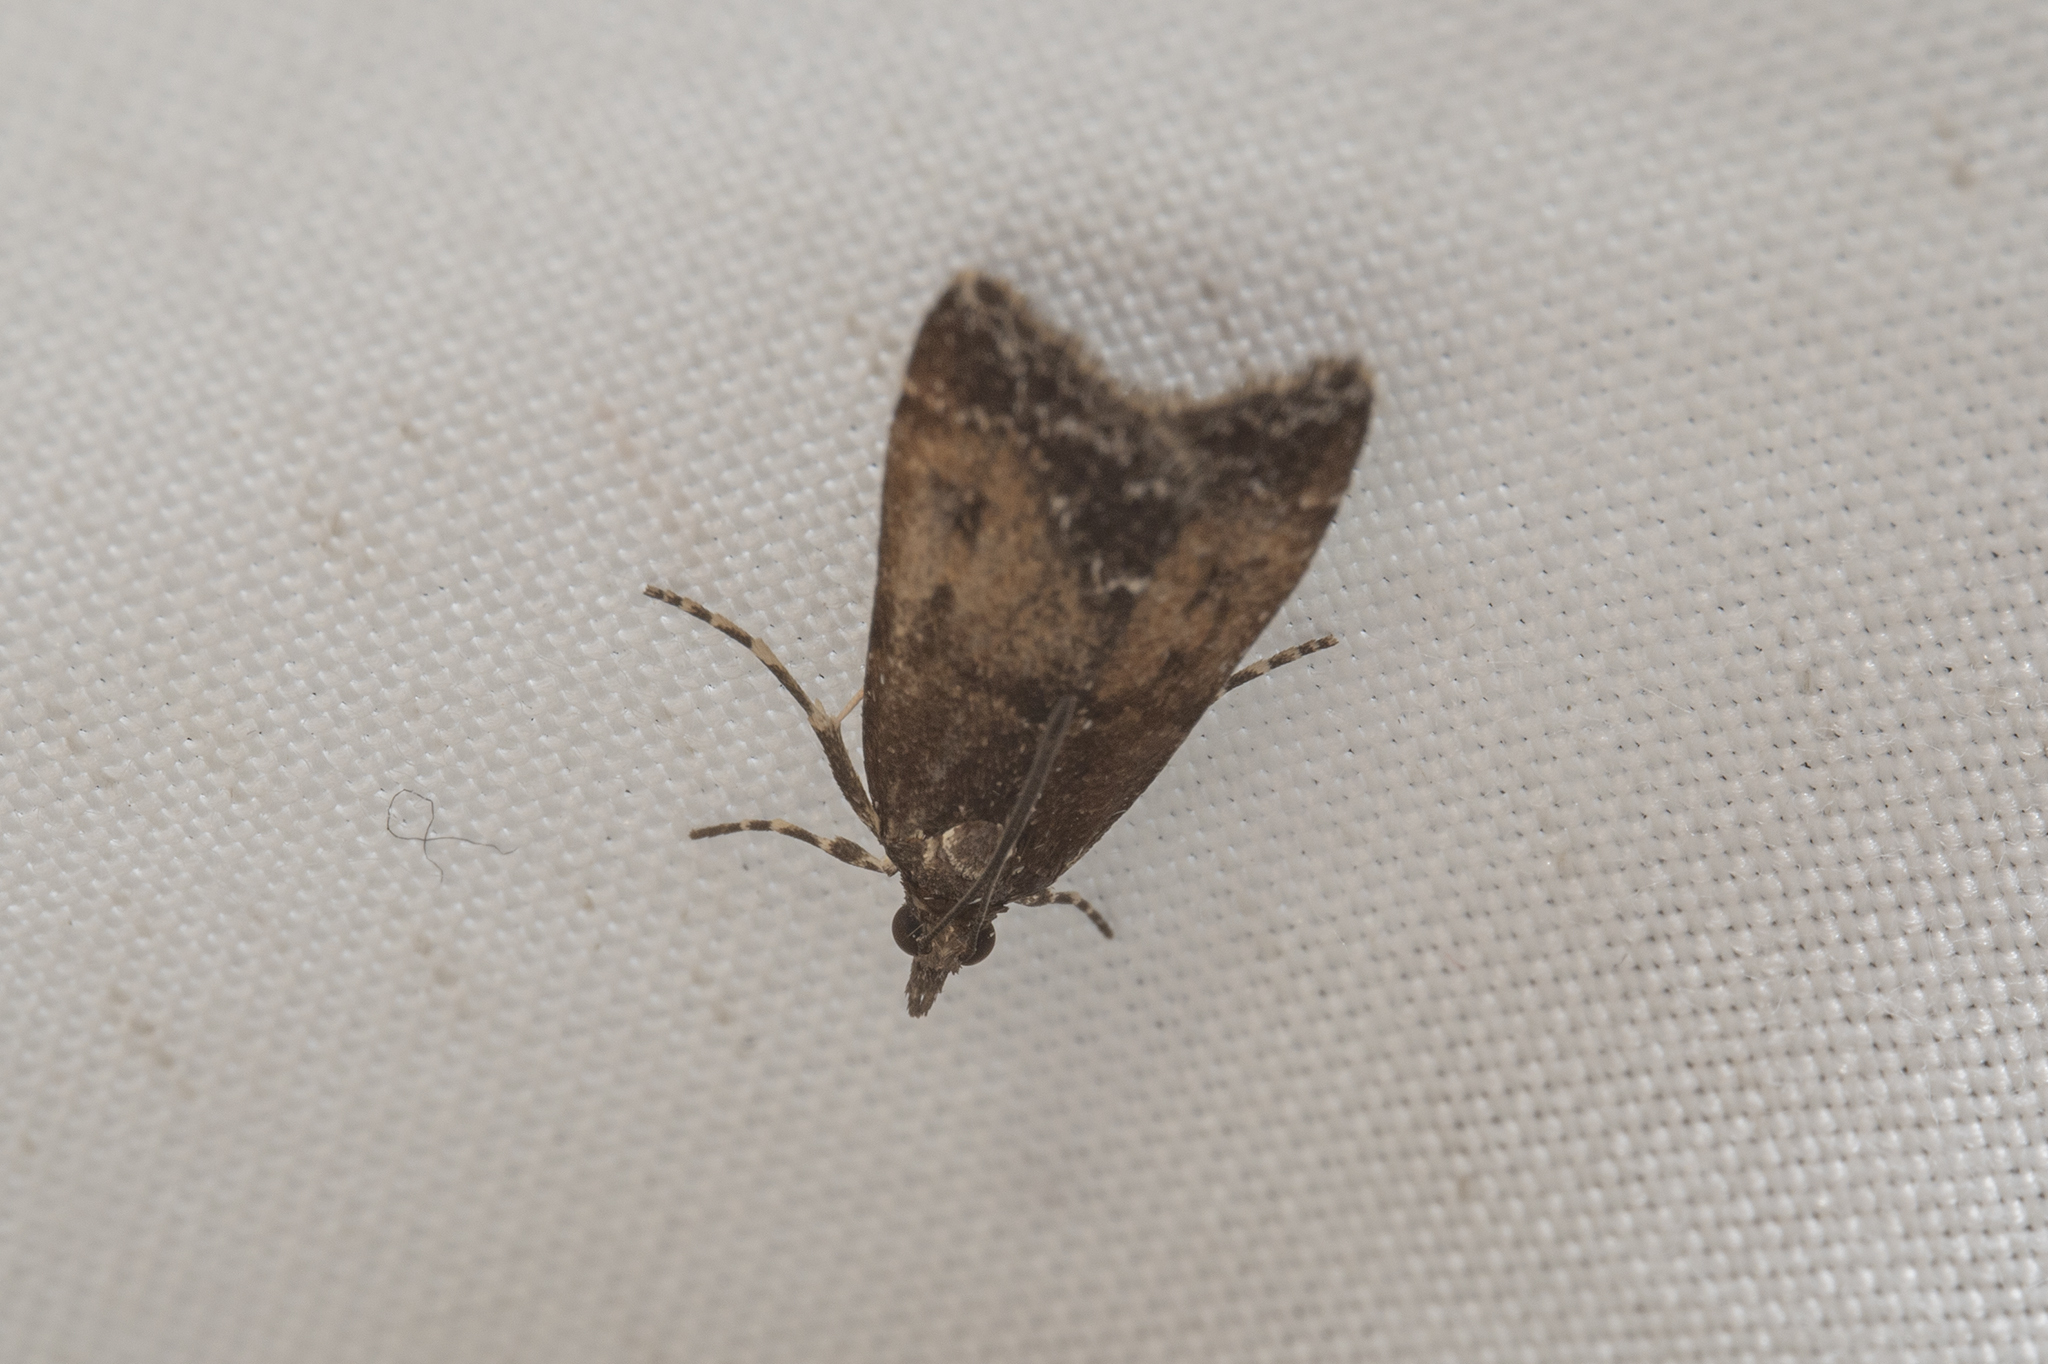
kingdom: Animalia
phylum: Arthropoda
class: Insecta
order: Lepidoptera
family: Crambidae
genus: Eudonia
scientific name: Eudonia asterisca
